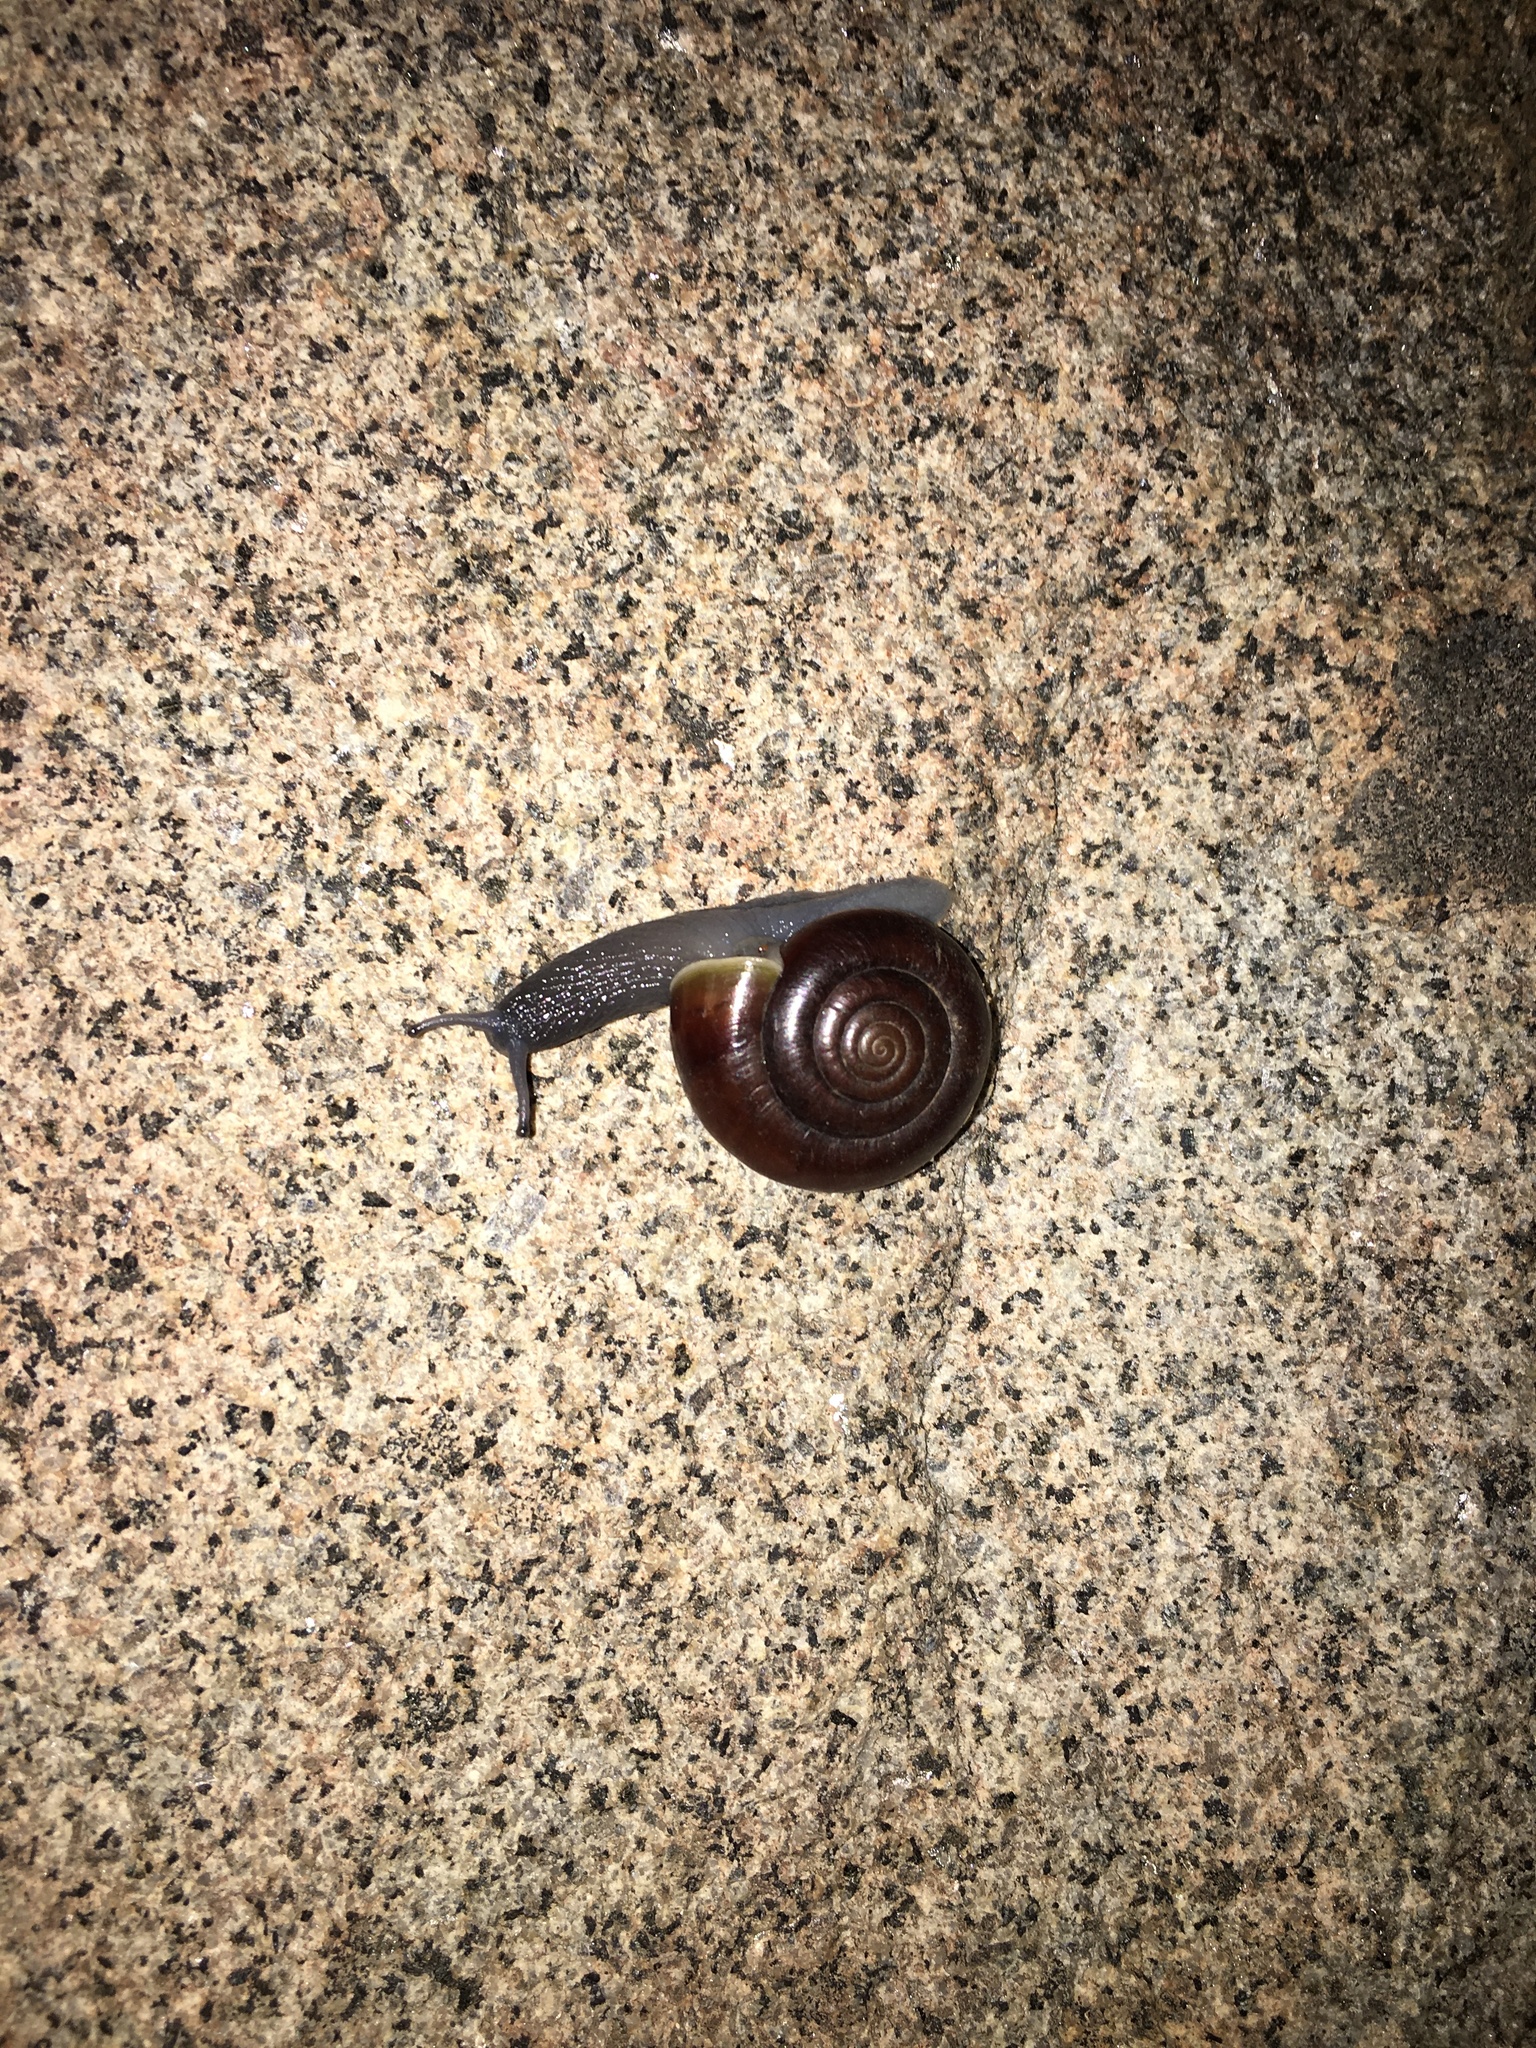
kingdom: Animalia
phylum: Mollusca
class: Gastropoda
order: Stylommatophora
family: Megomphicidae
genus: Glyptostoma
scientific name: Glyptostoma newberryanum
